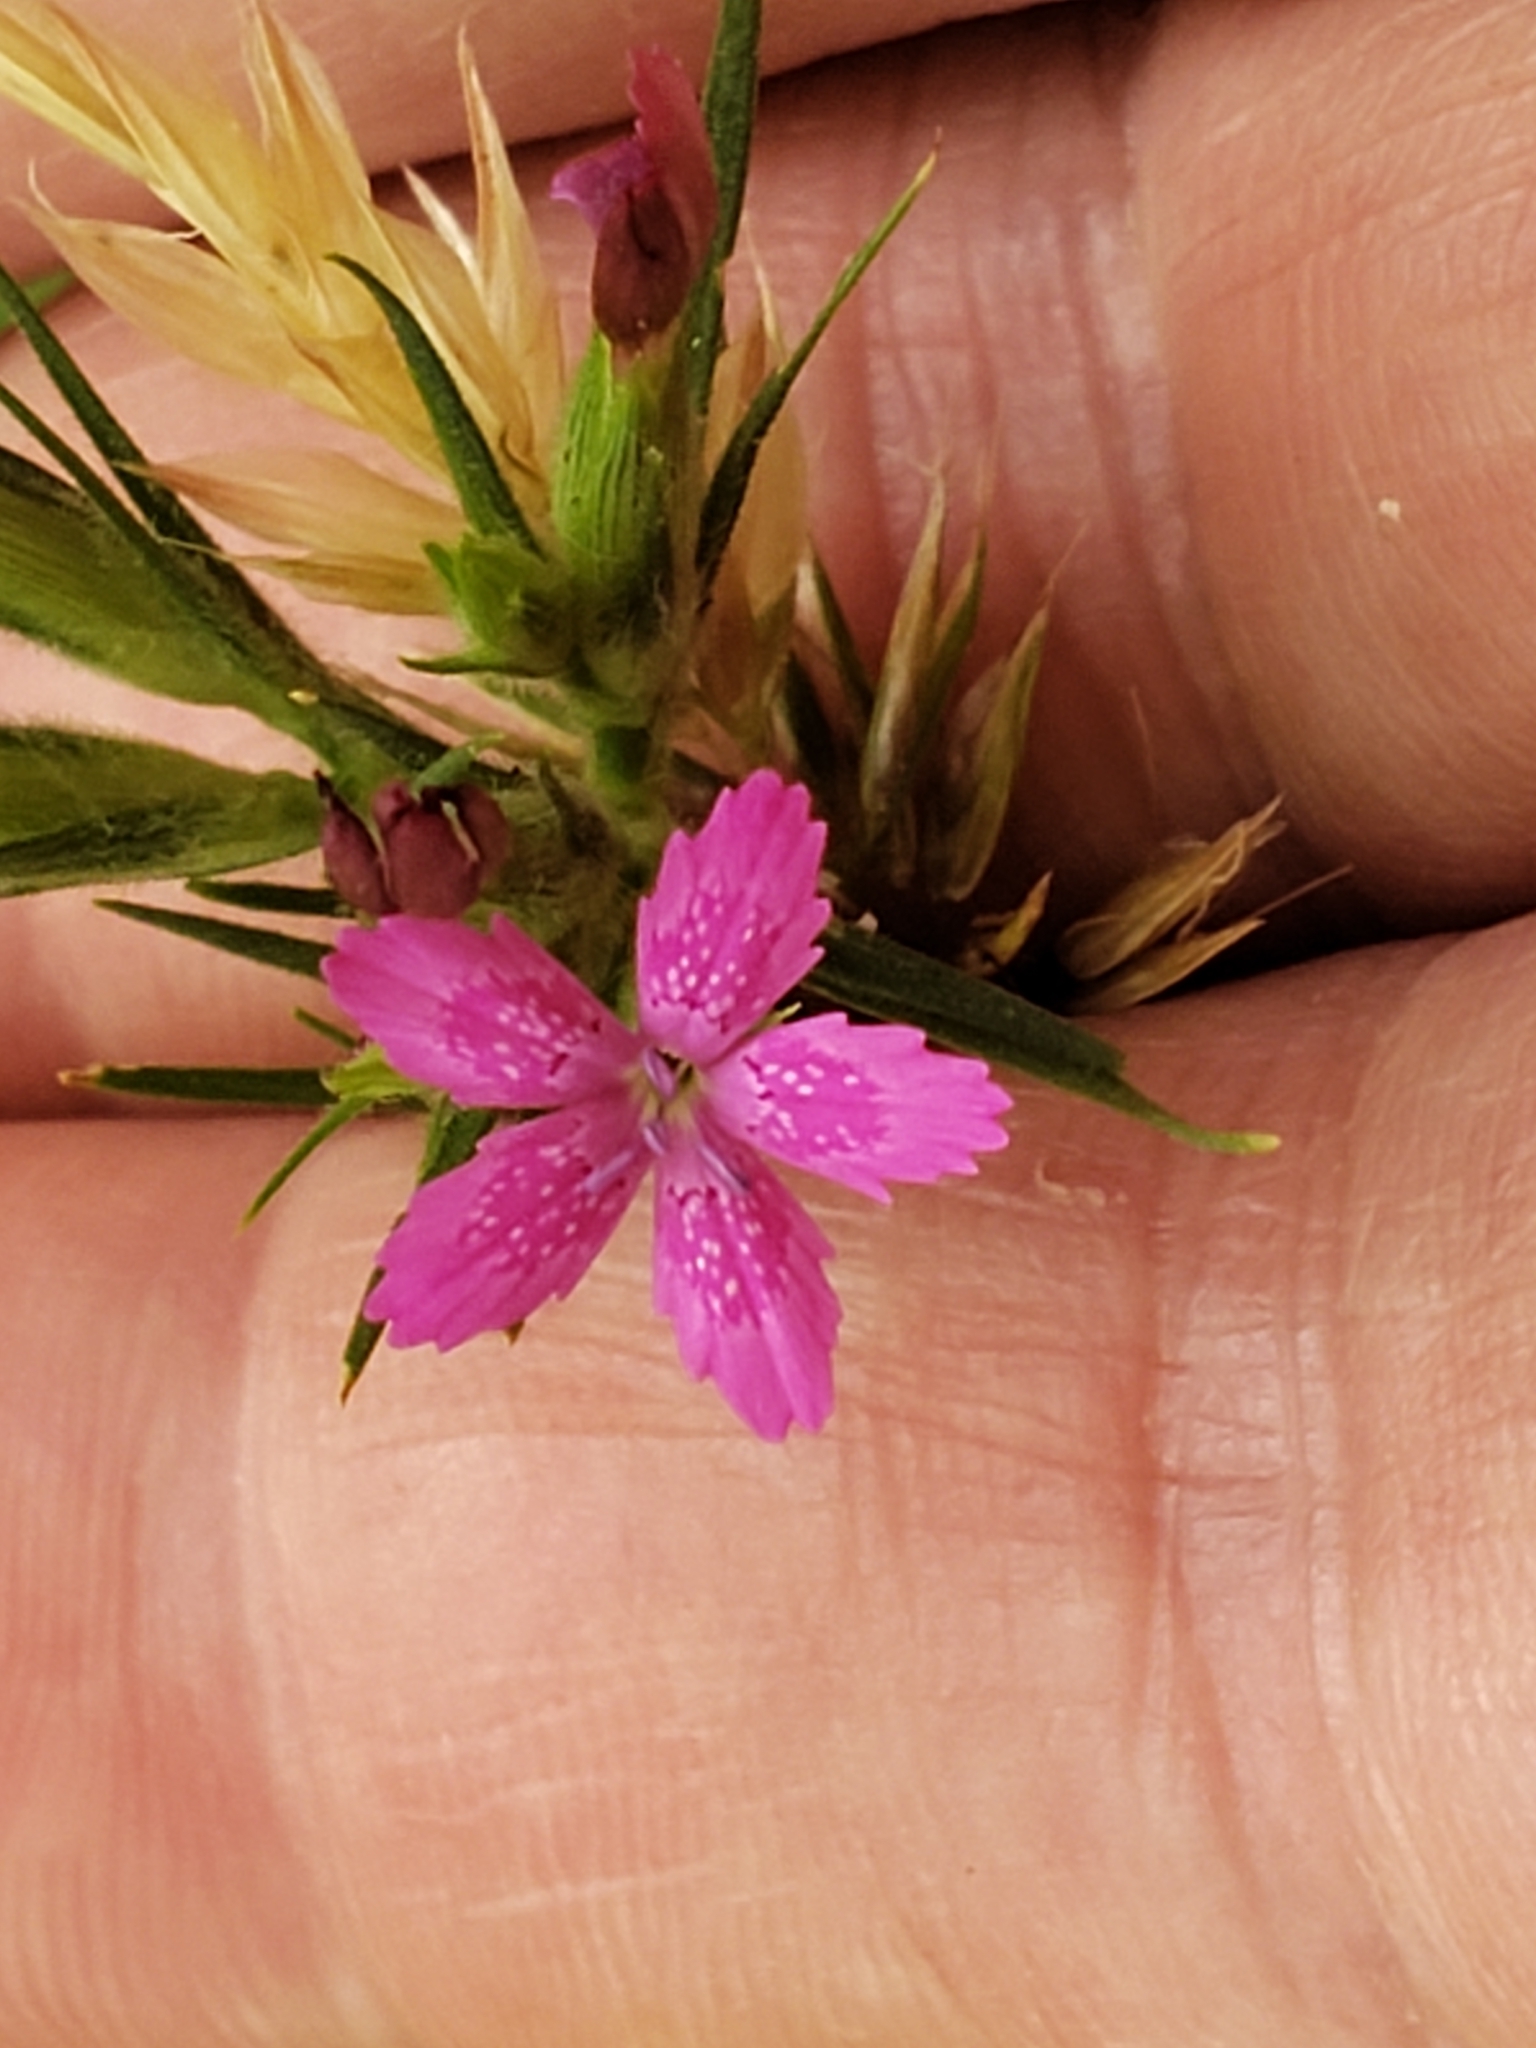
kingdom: Plantae
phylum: Tracheophyta
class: Magnoliopsida
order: Caryophyllales
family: Caryophyllaceae
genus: Dianthus
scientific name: Dianthus armeria
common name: Deptford pink
